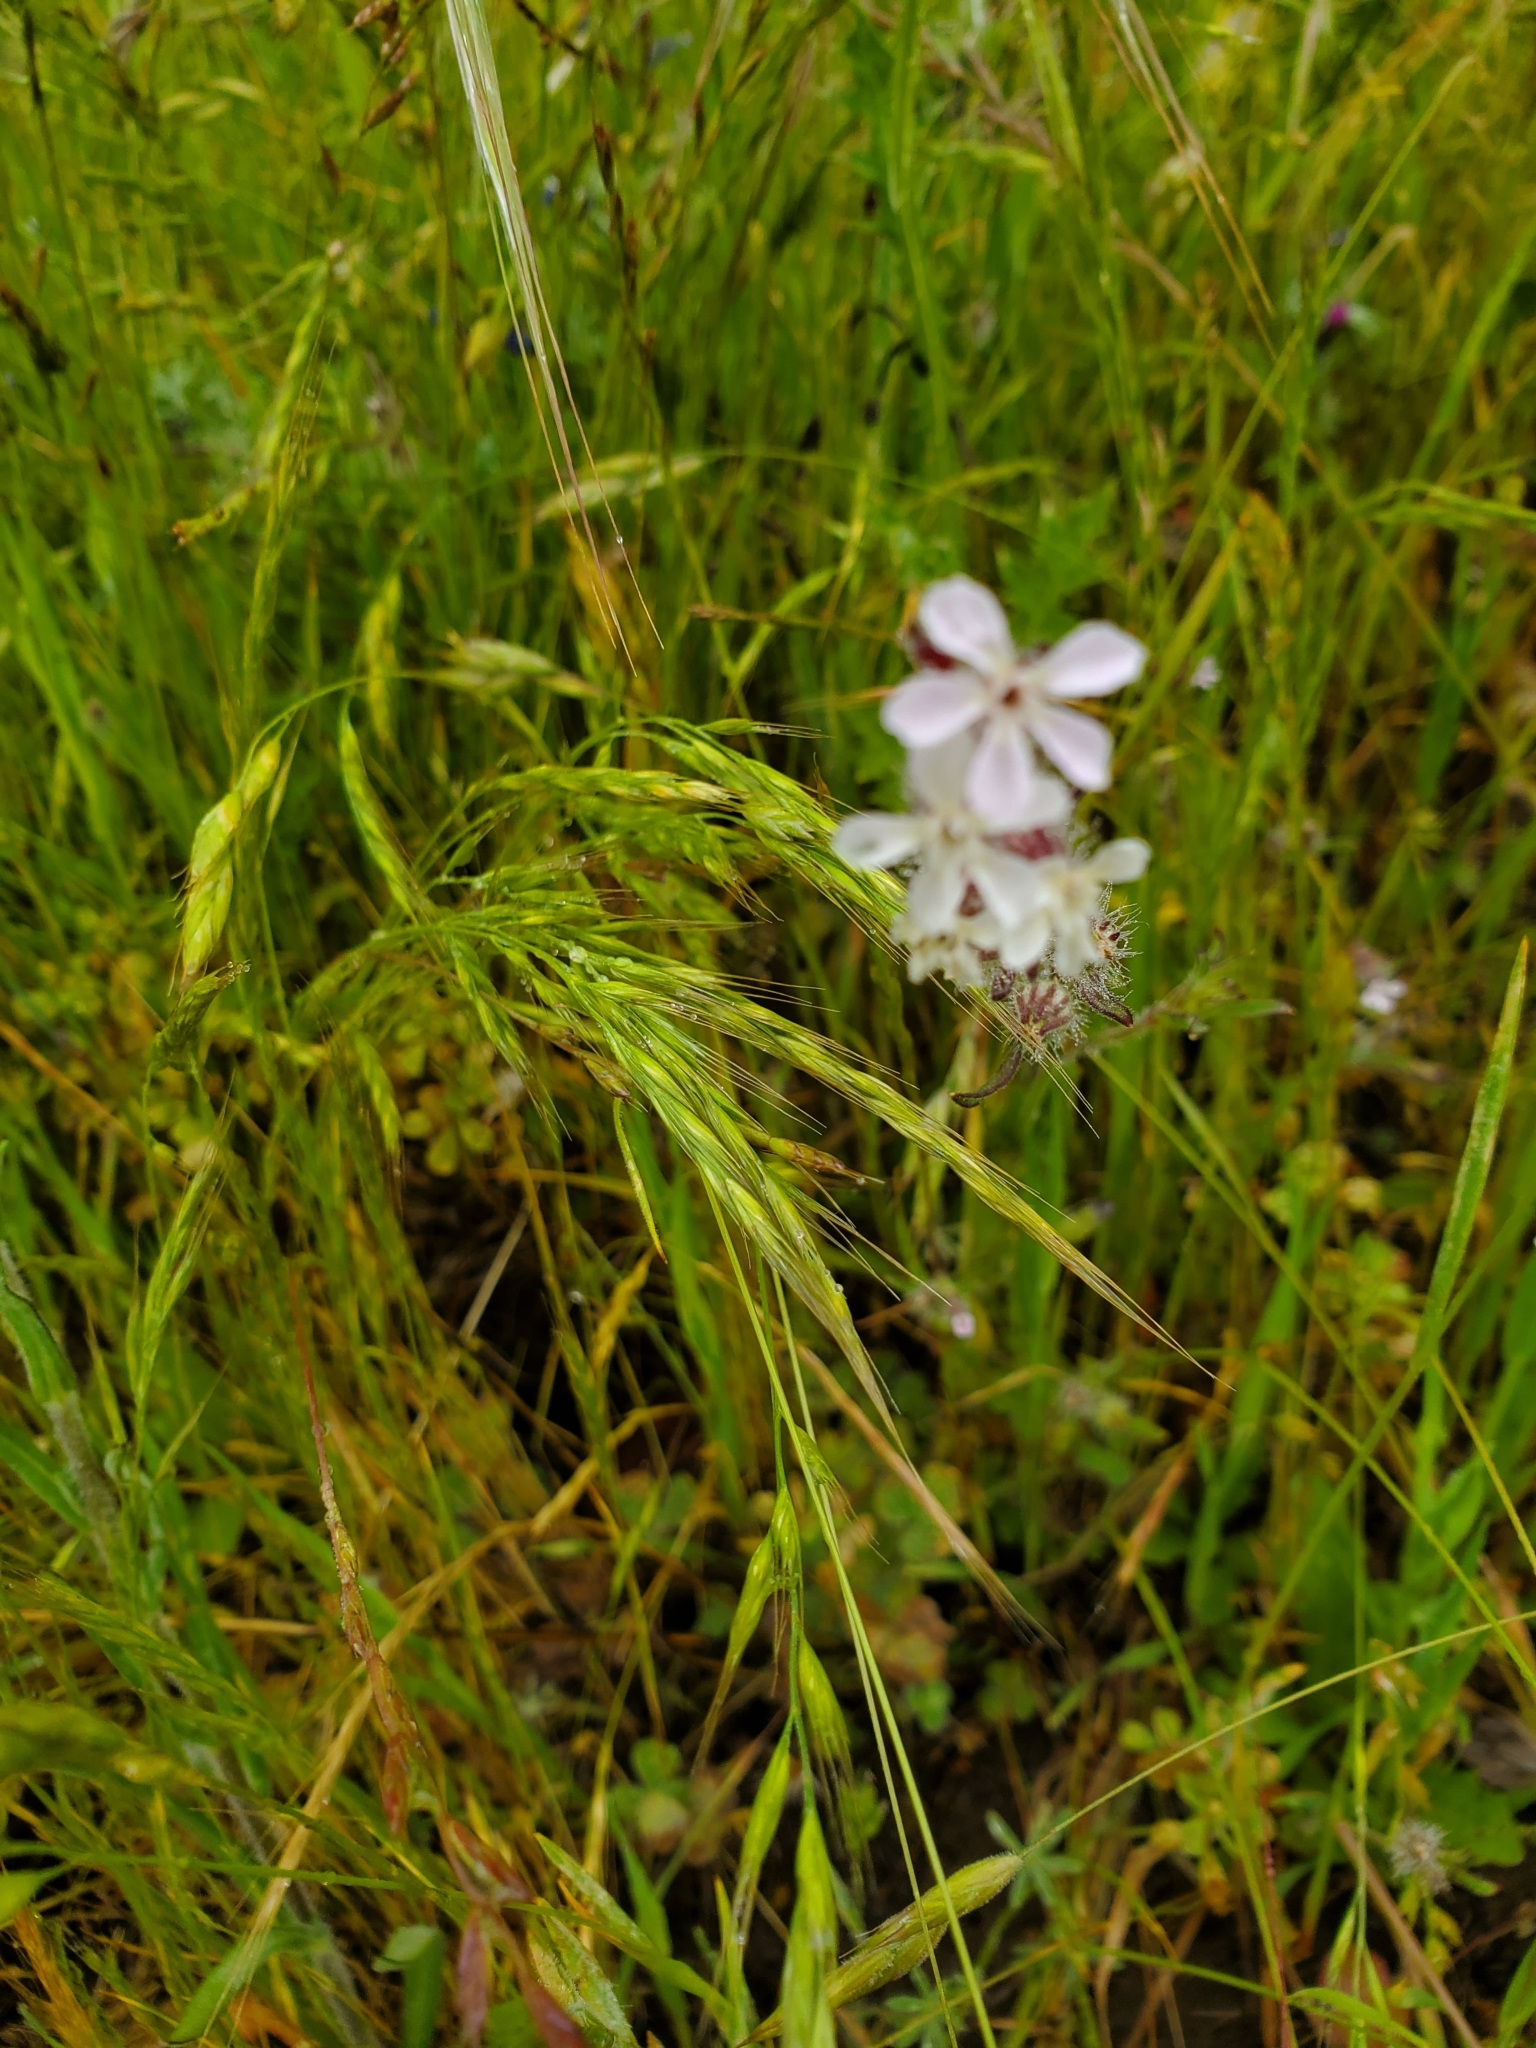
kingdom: Plantae
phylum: Tracheophyta
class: Magnoliopsida
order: Caryophyllales
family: Caryophyllaceae
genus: Silene
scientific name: Silene gallica
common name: Small-flowered catchfly
